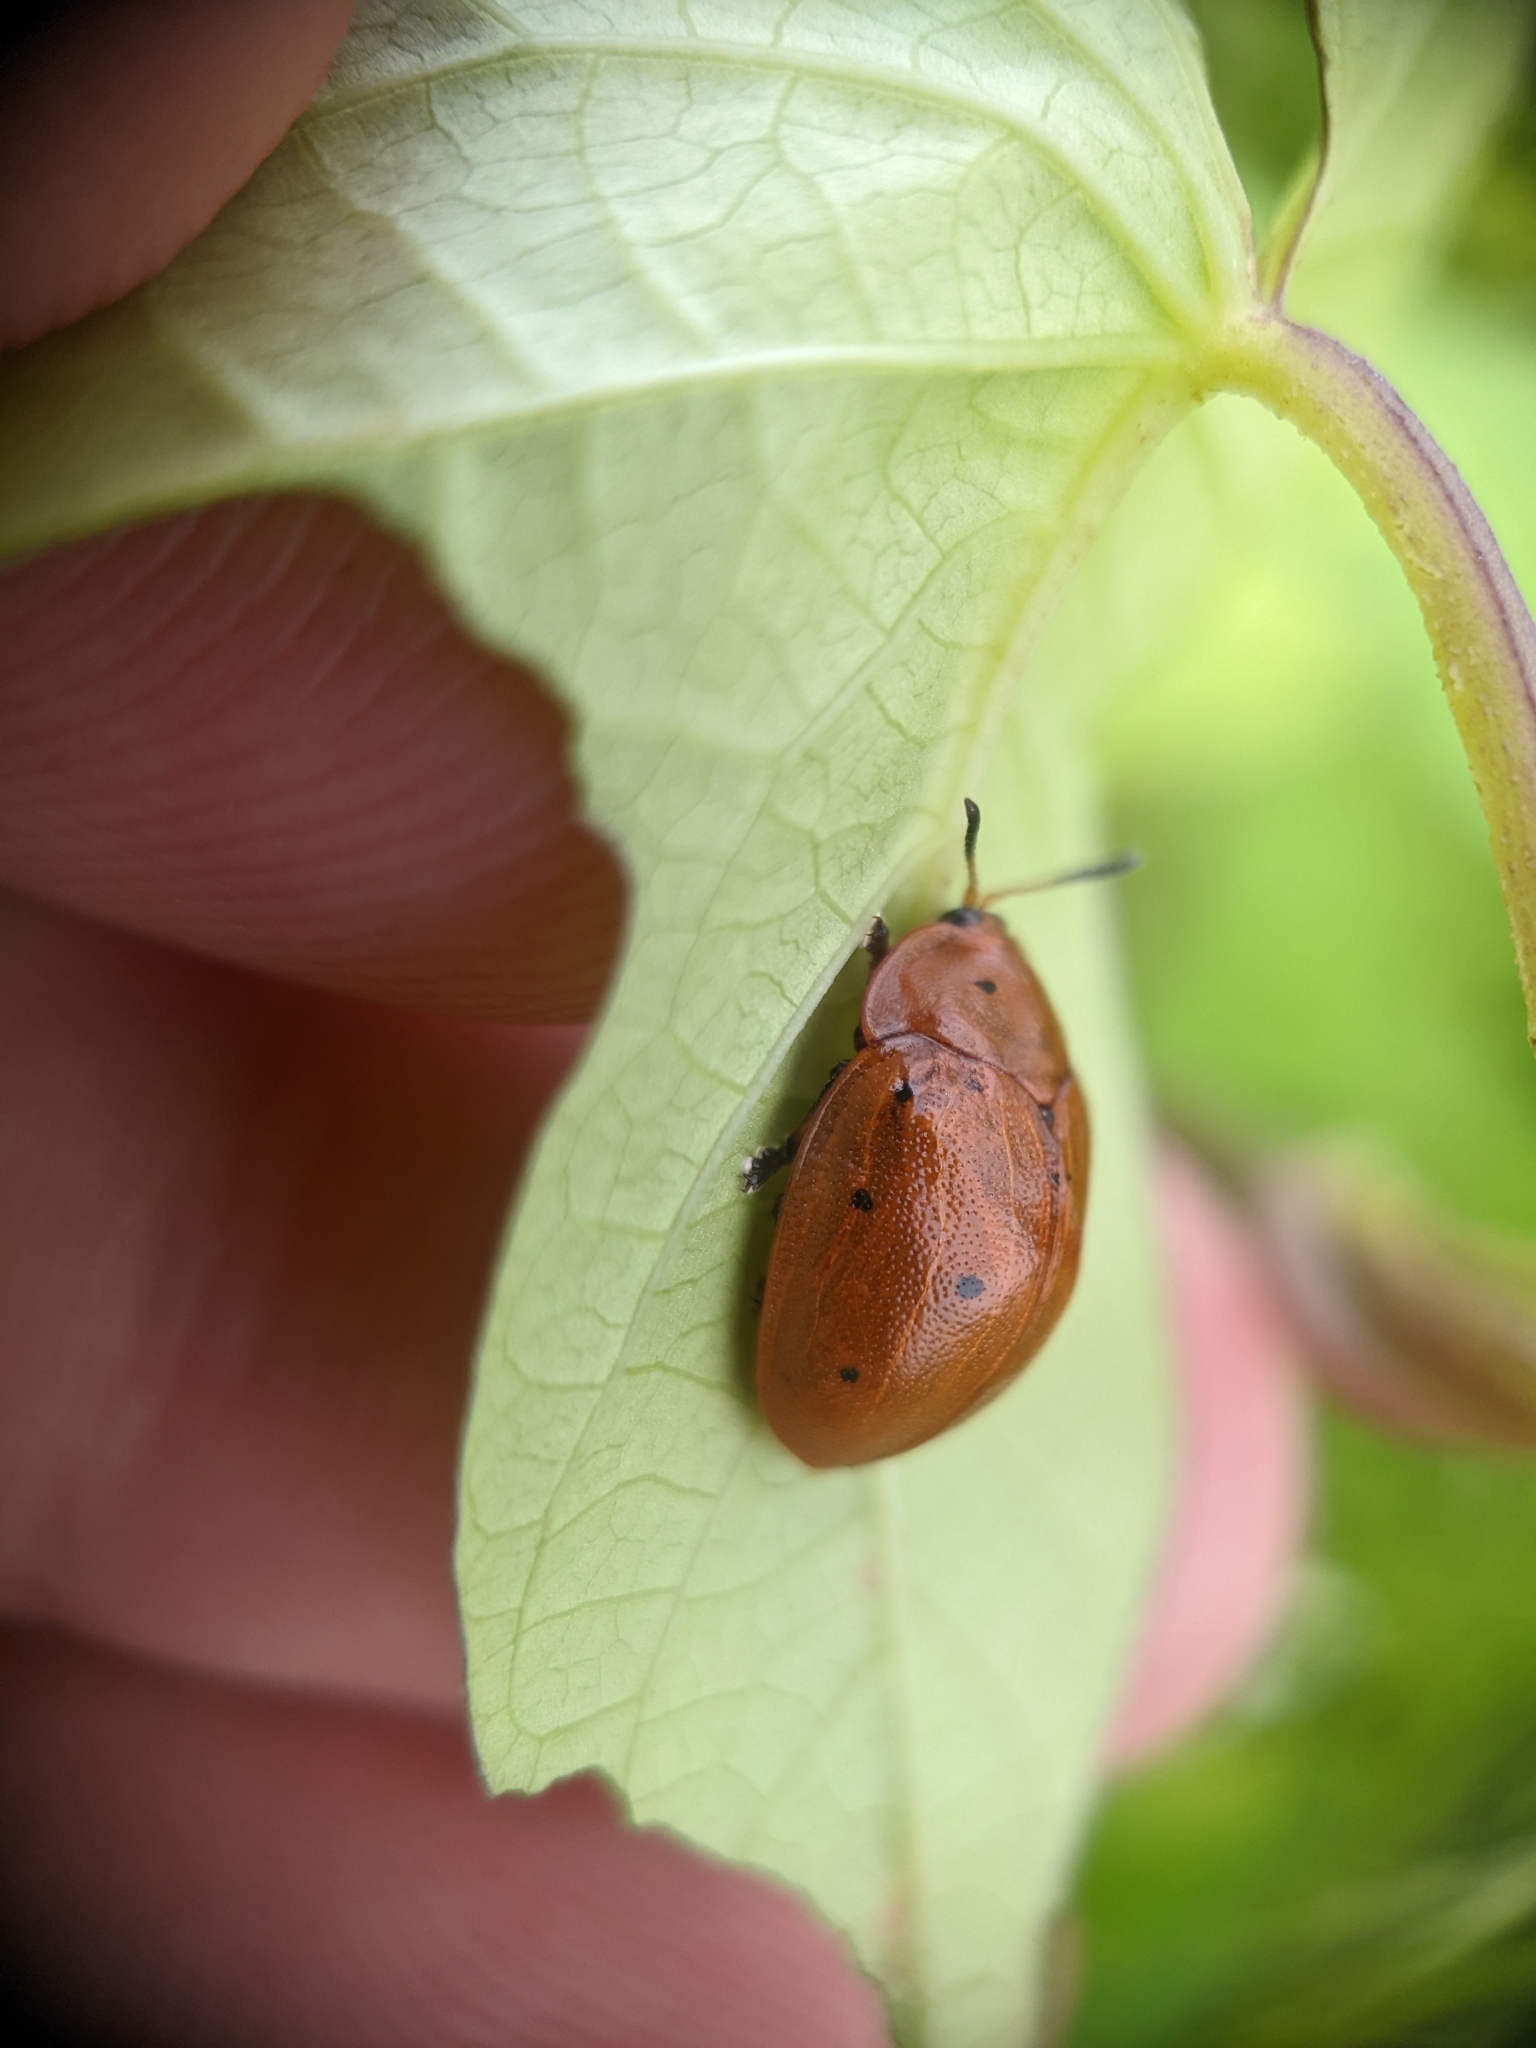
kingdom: Animalia
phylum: Arthropoda
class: Insecta
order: Coleoptera
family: Chrysomelidae
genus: Chelymorpha
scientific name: Chelymorpha cassidea
